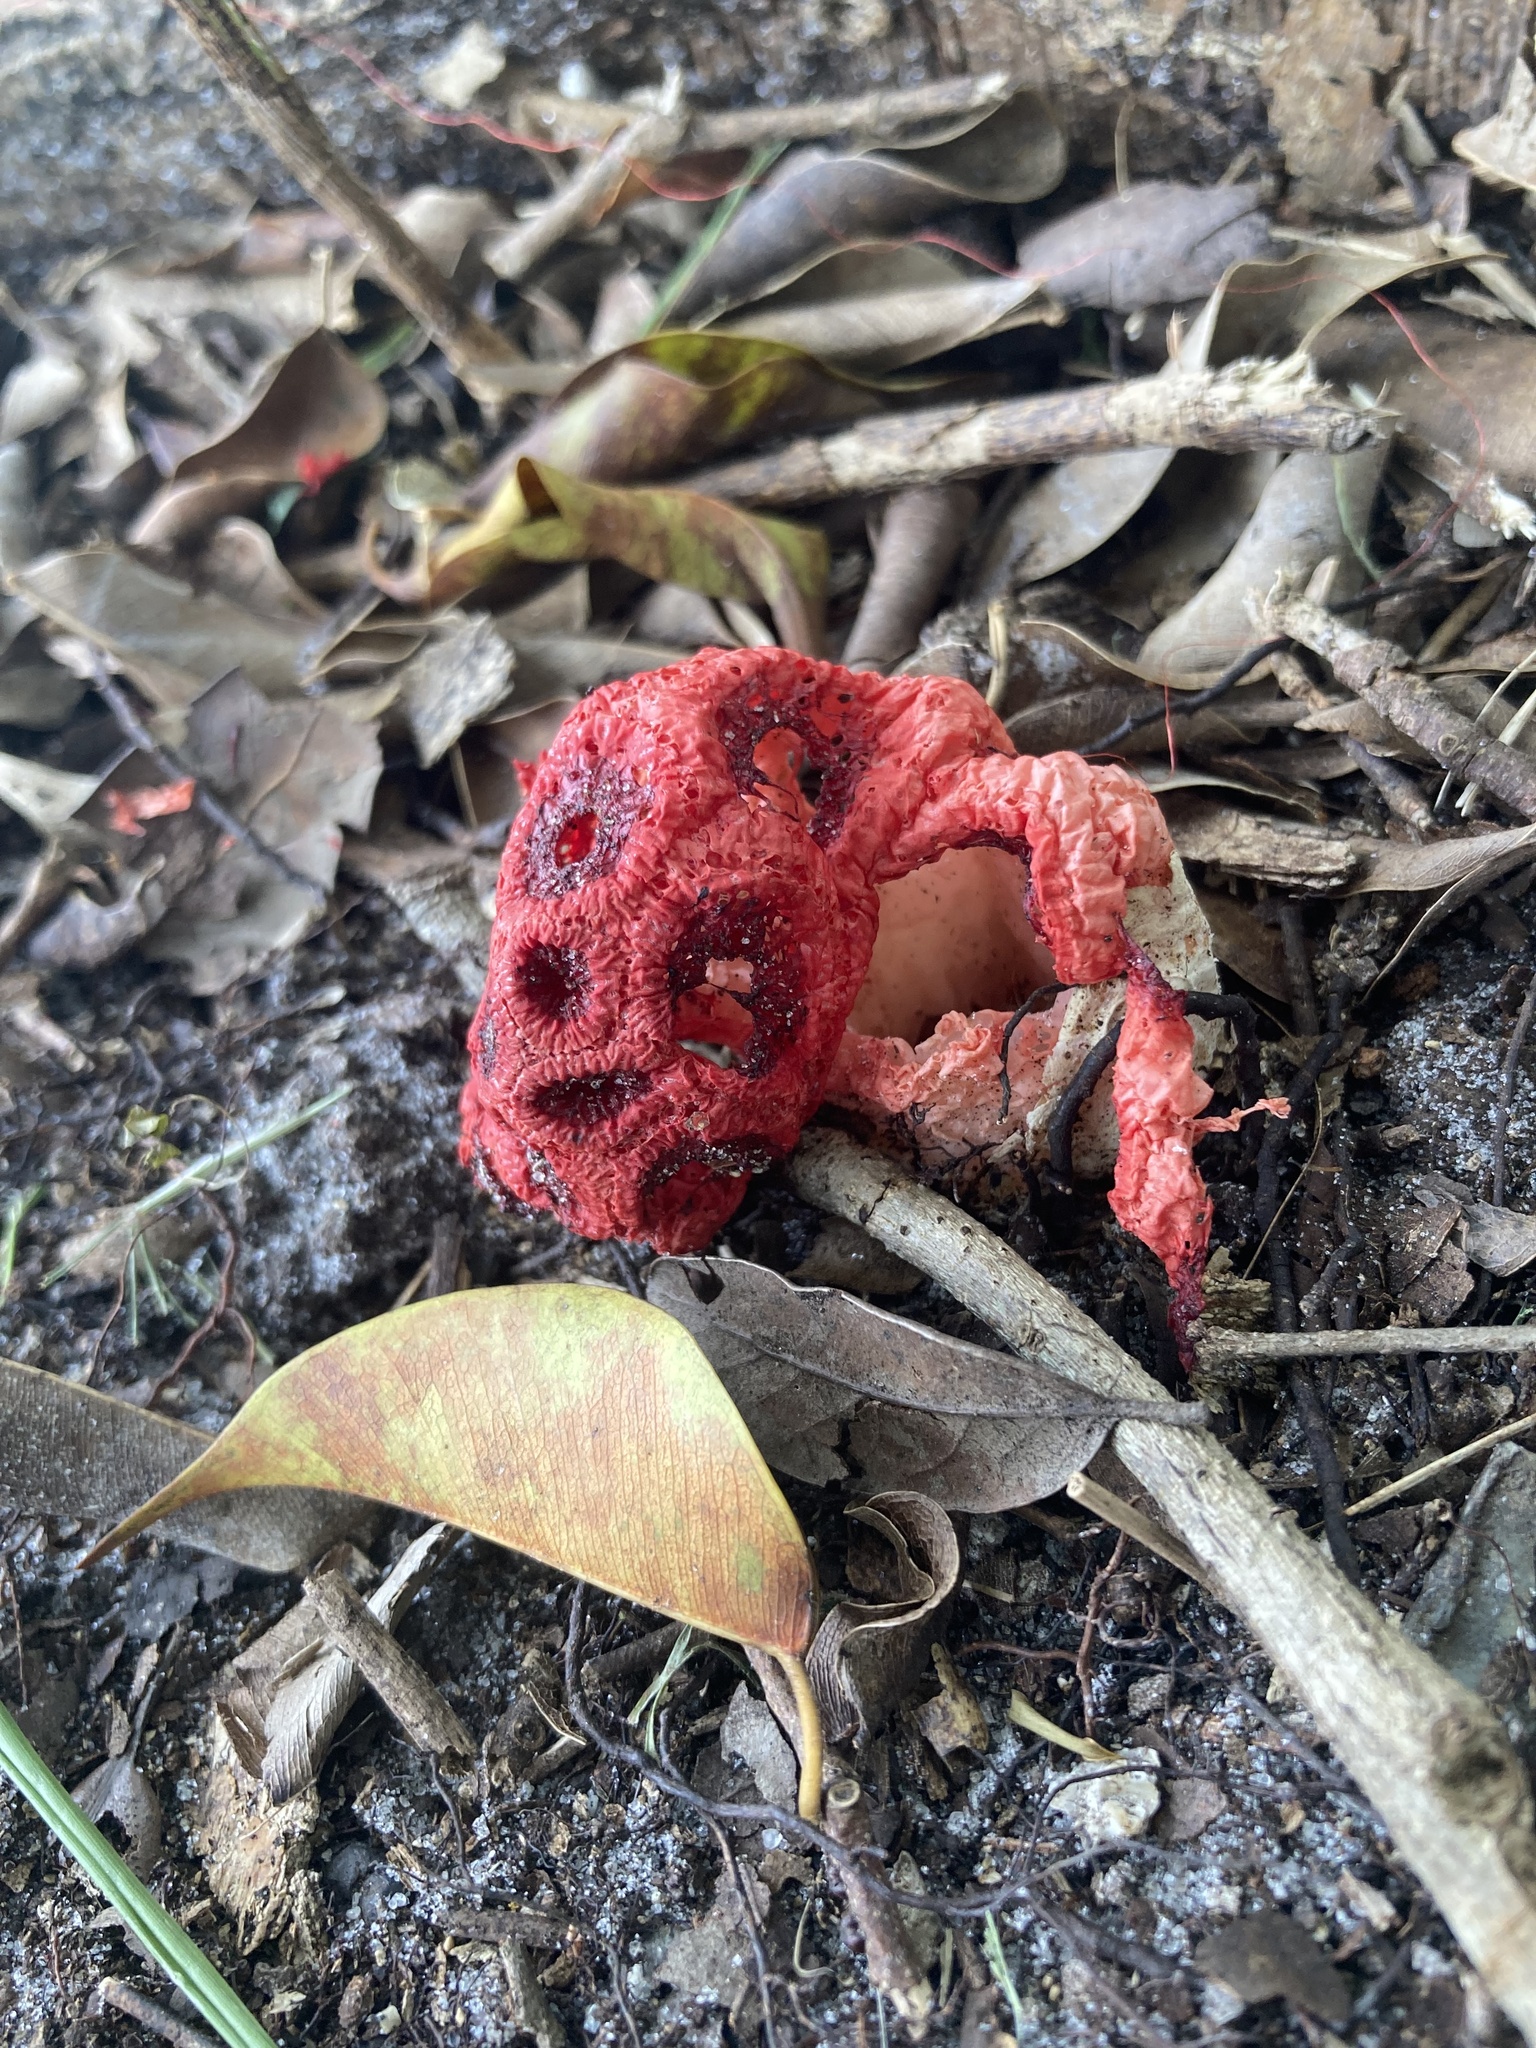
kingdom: Fungi
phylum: Basidiomycota
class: Agaricomycetes
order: Phallales
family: Phallaceae
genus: Clathrus
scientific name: Clathrus crispatus
